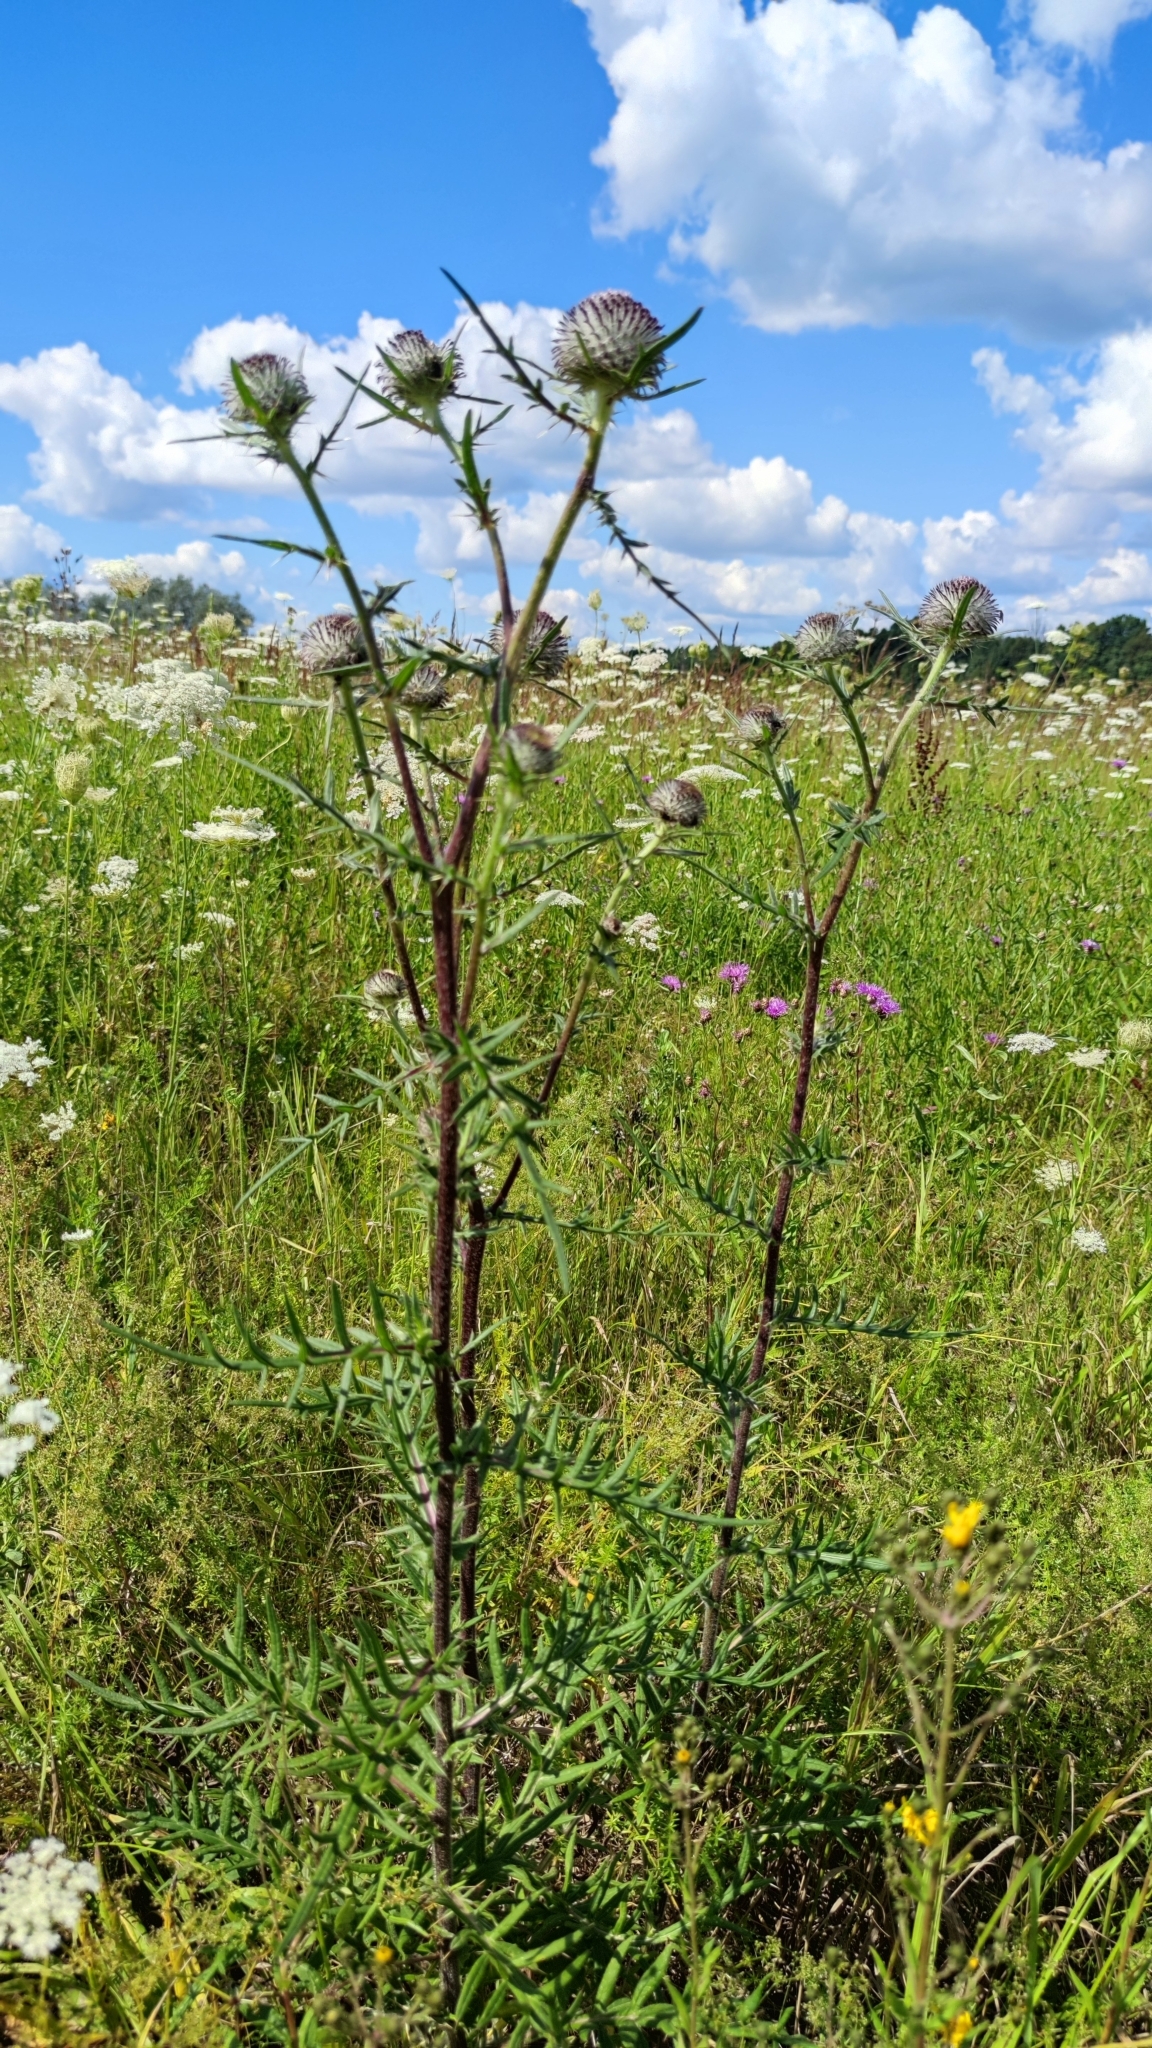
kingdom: Plantae
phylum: Tracheophyta
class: Magnoliopsida
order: Asterales
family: Asteraceae
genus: Lophiolepis
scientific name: Lophiolepis decussata
